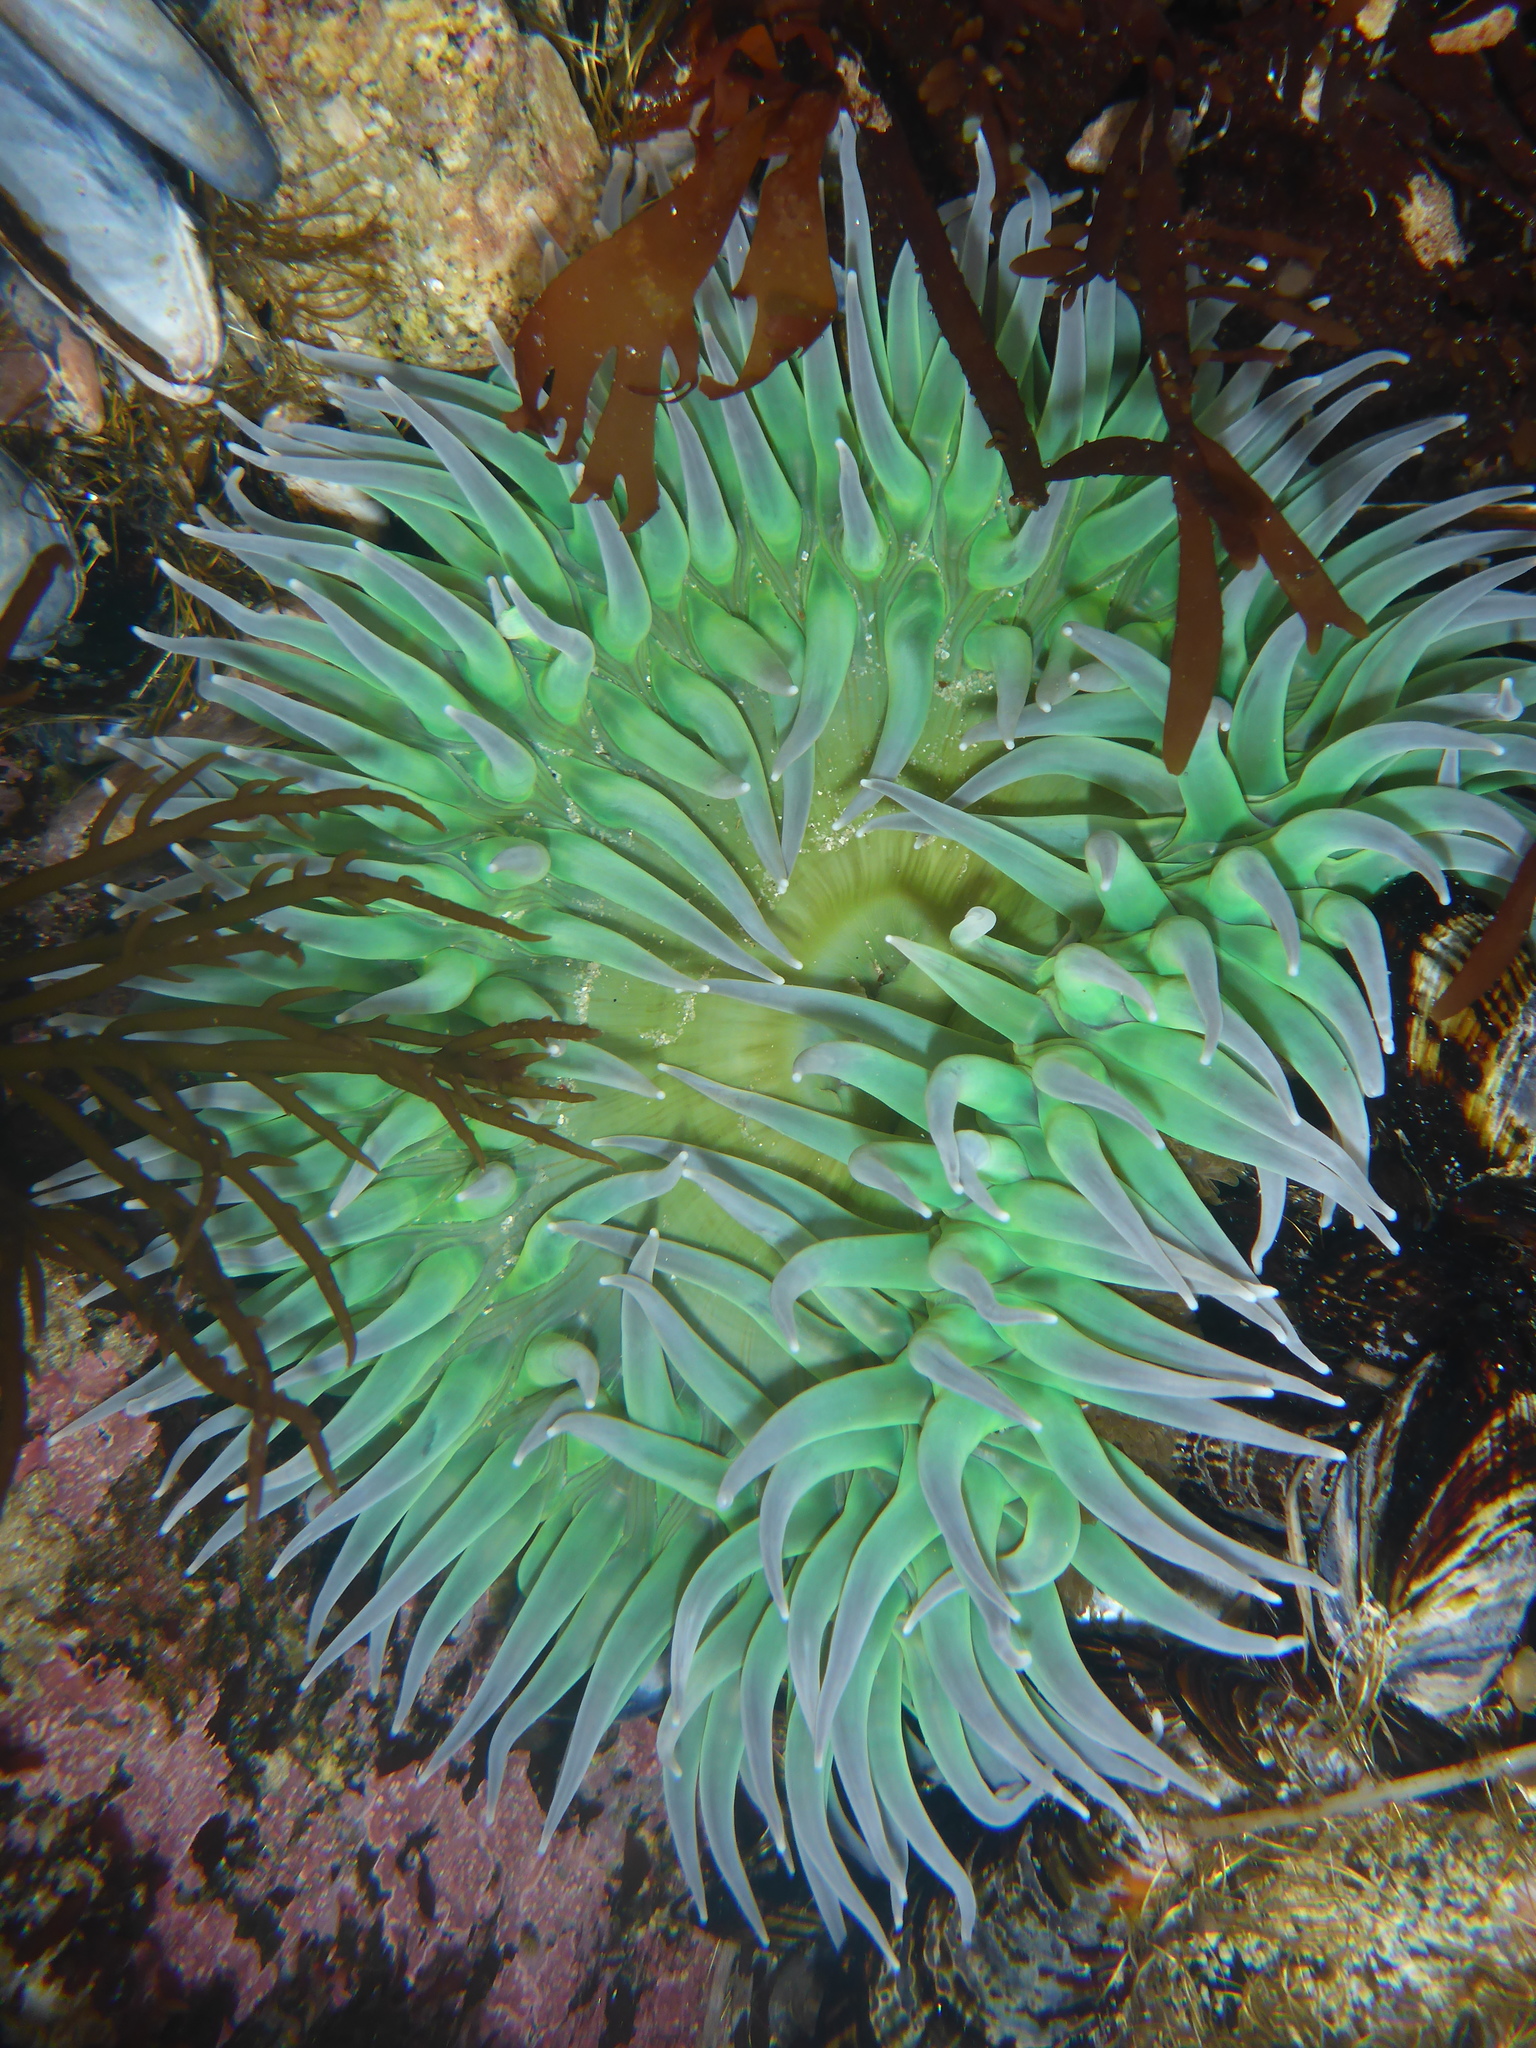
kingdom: Animalia
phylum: Cnidaria
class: Anthozoa
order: Actiniaria
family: Actiniidae
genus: Anthopleura
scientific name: Anthopleura xanthogrammica
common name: Giant green anemone
